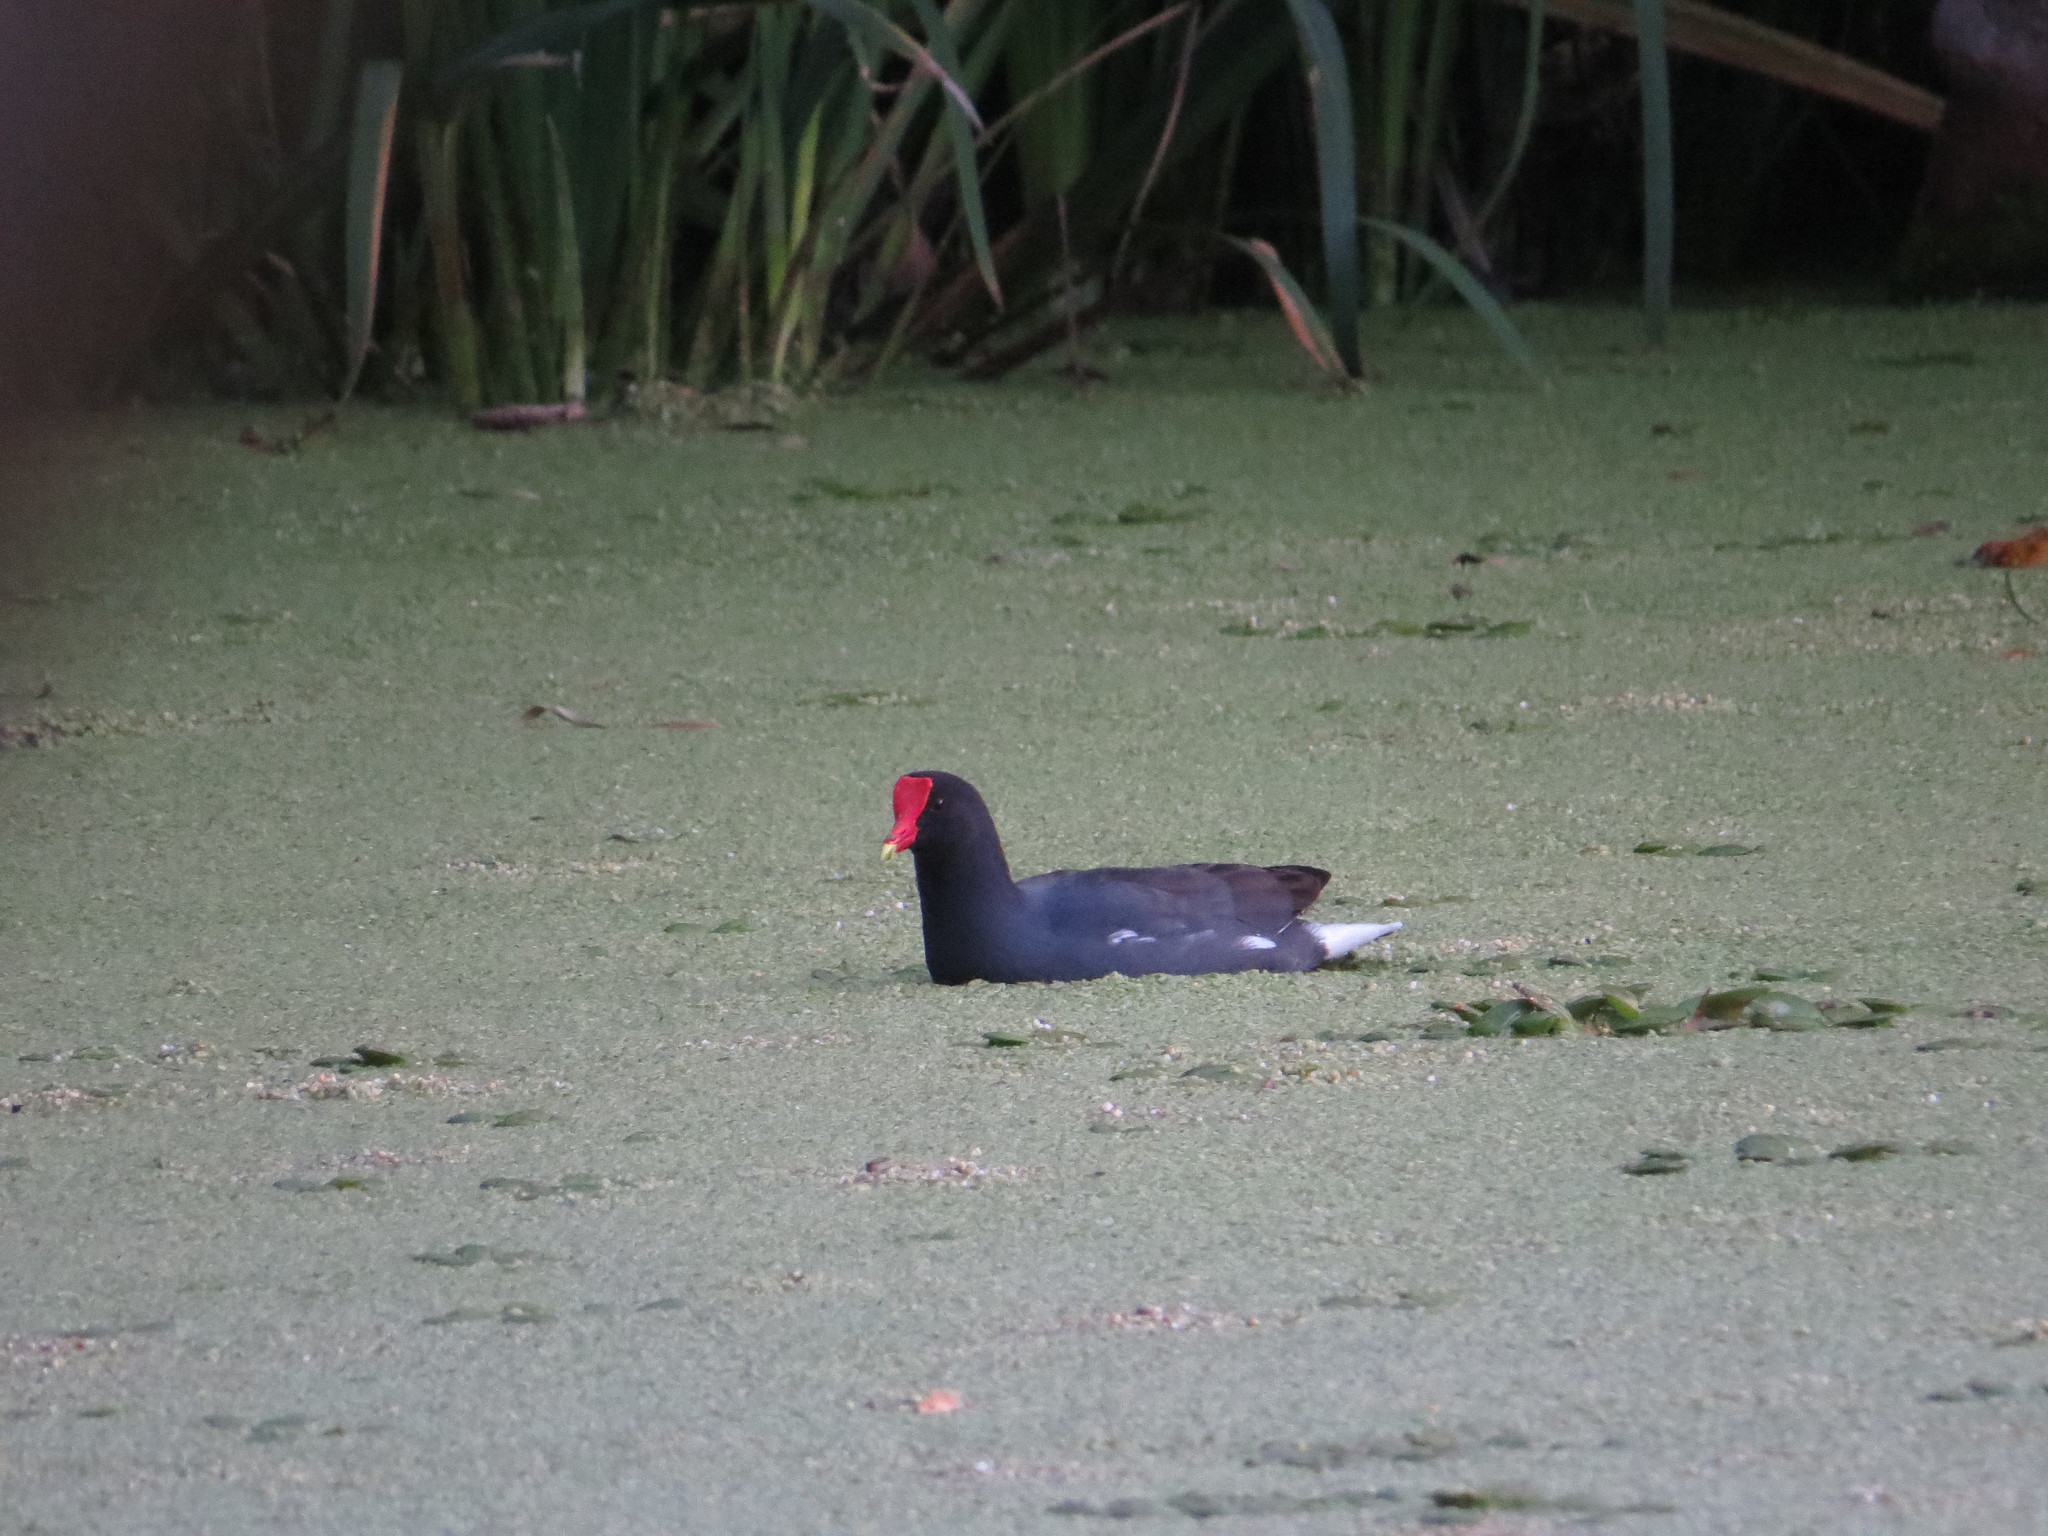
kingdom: Animalia
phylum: Chordata
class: Aves
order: Gruiformes
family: Rallidae
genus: Gallinula
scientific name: Gallinula chloropus
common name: Common moorhen
